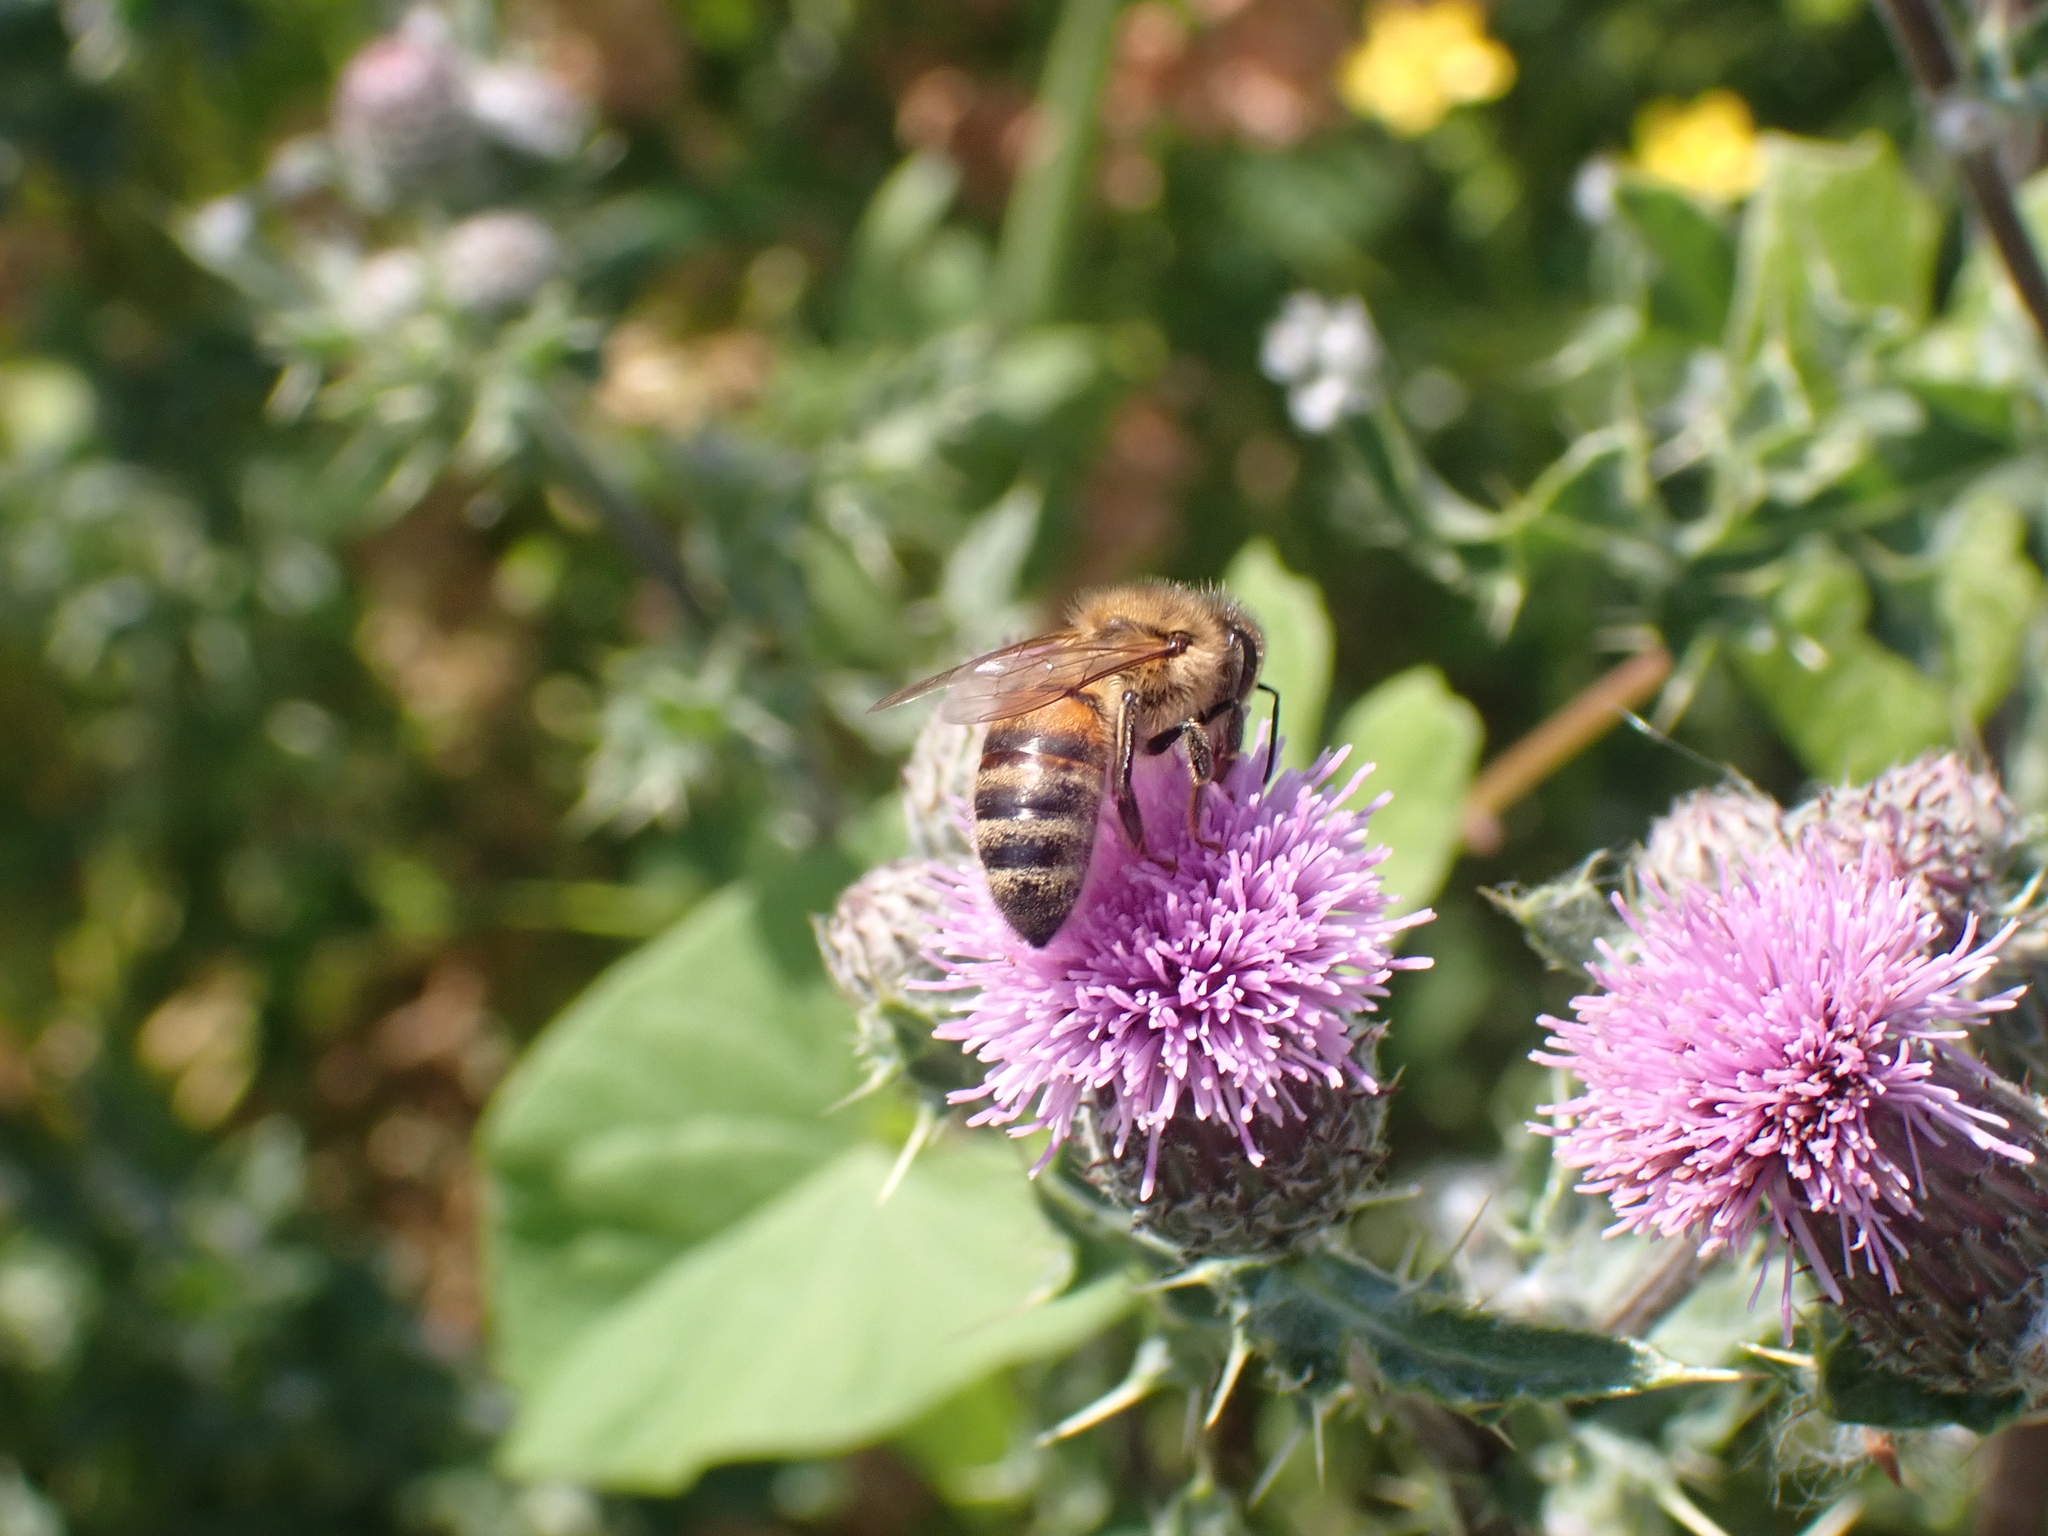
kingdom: Animalia
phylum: Arthropoda
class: Insecta
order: Hymenoptera
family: Apidae
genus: Apis
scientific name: Apis mellifera
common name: Honey bee
